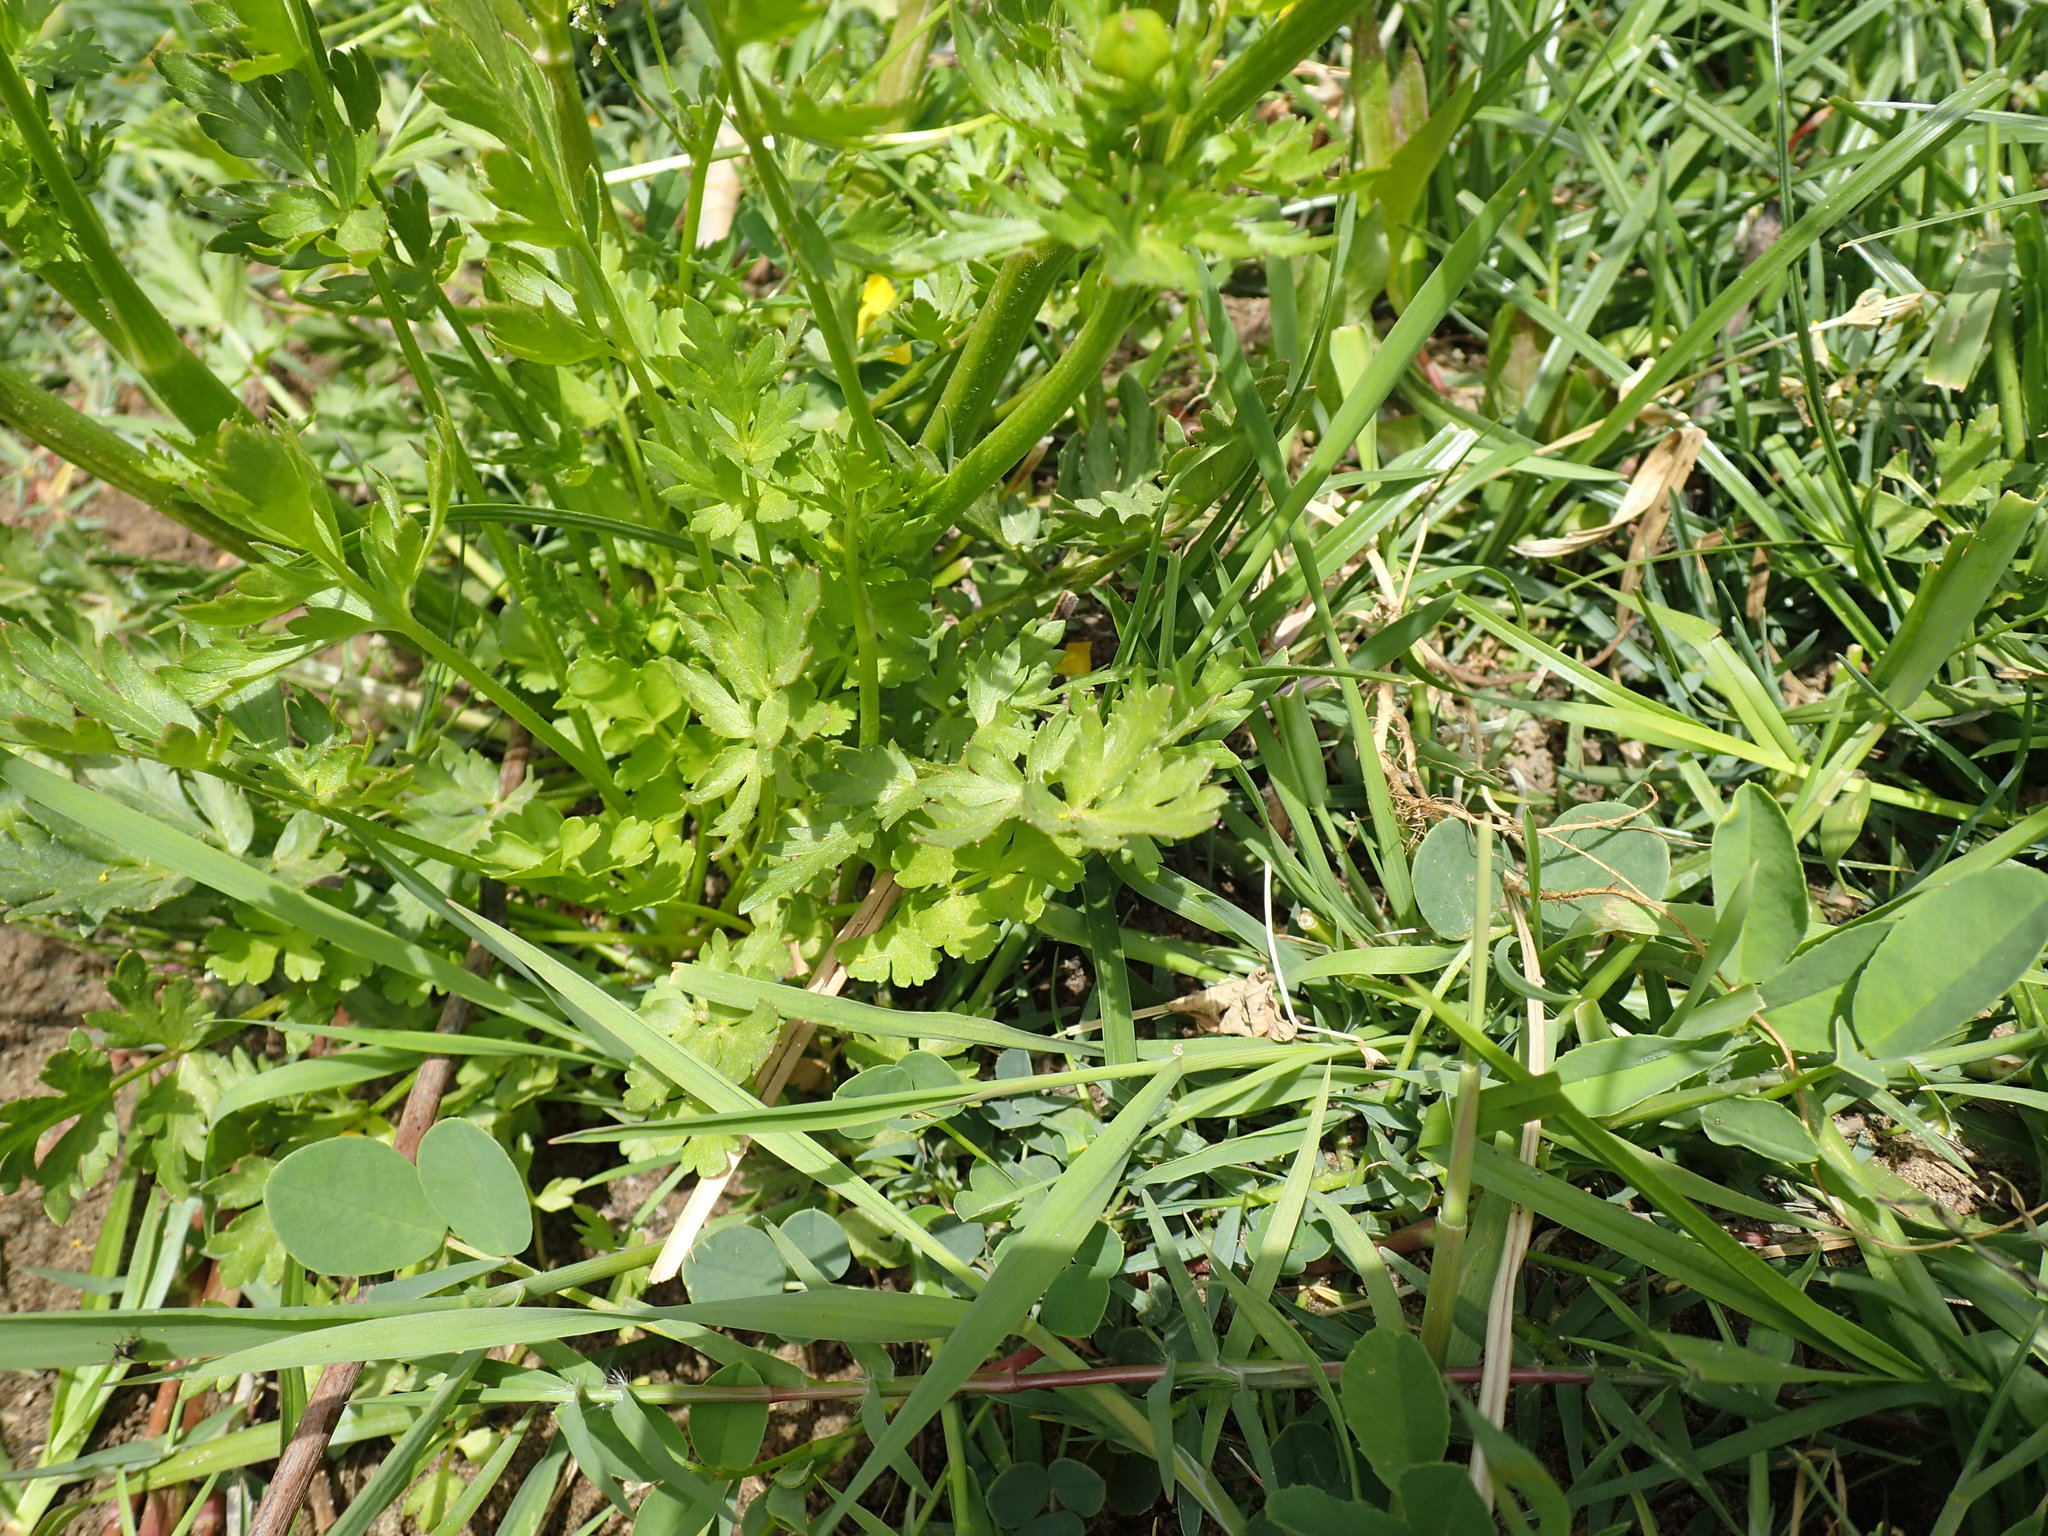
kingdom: Plantae
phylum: Tracheophyta
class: Magnoliopsida
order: Ranunculales
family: Ranunculaceae
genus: Ranunculus
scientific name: Ranunculus multifidus
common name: Wild buttercup
